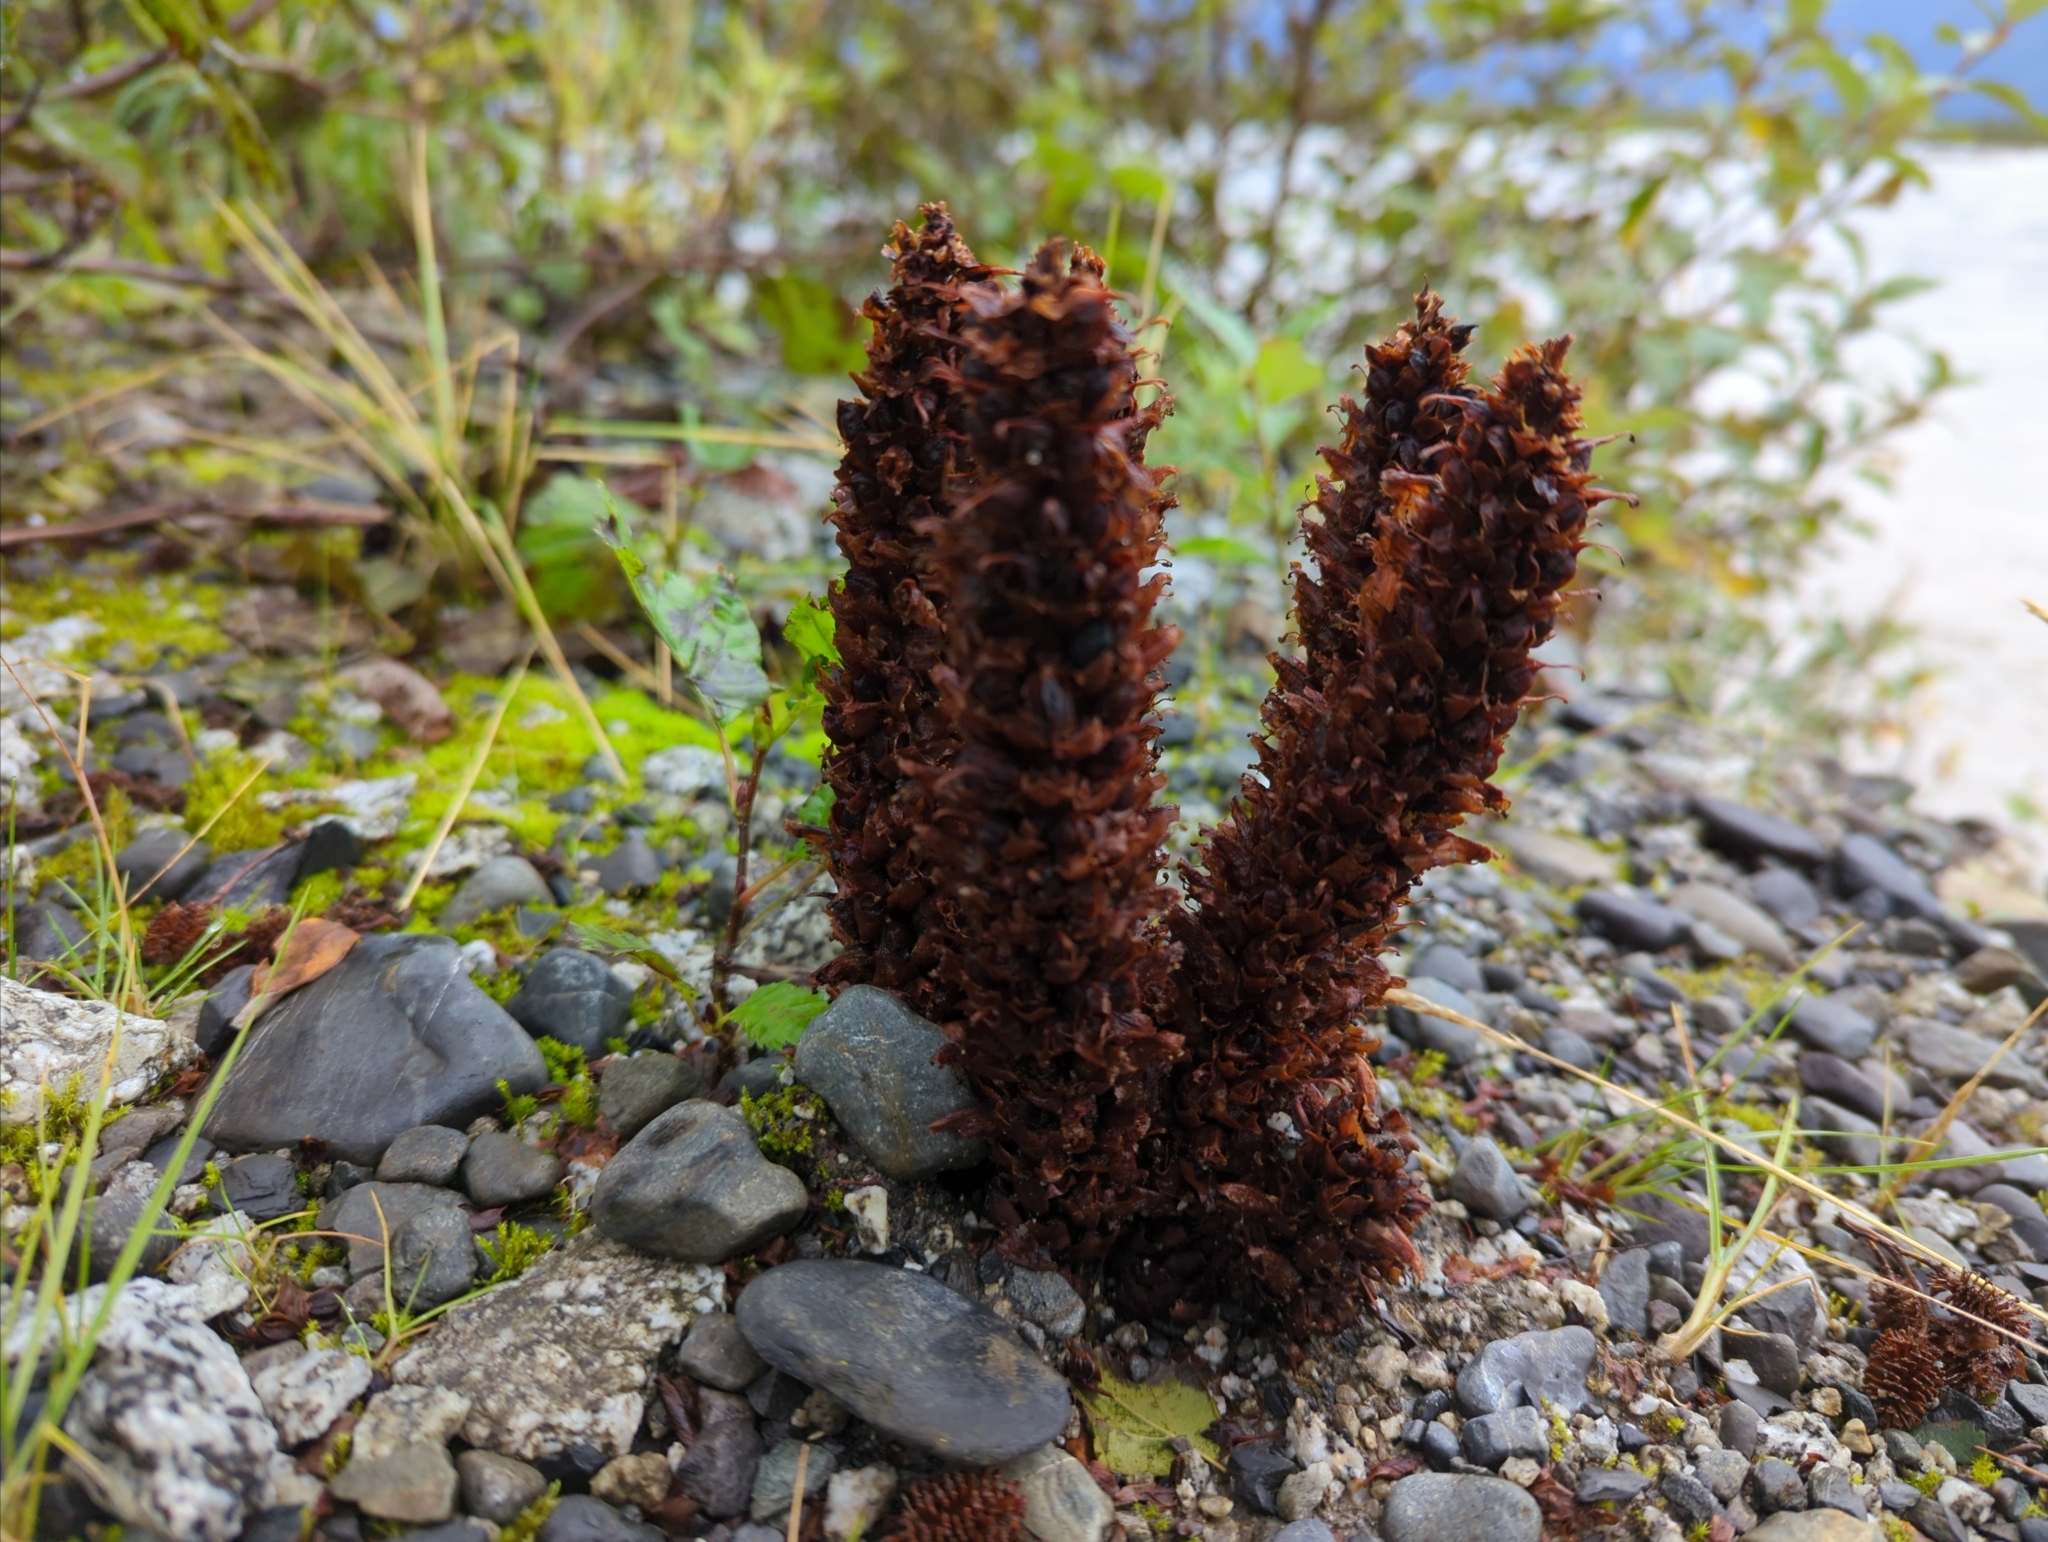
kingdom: Plantae
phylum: Tracheophyta
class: Magnoliopsida
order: Lamiales
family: Orobanchaceae
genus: Boschniakia
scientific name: Boschniakia rossica
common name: Poque
